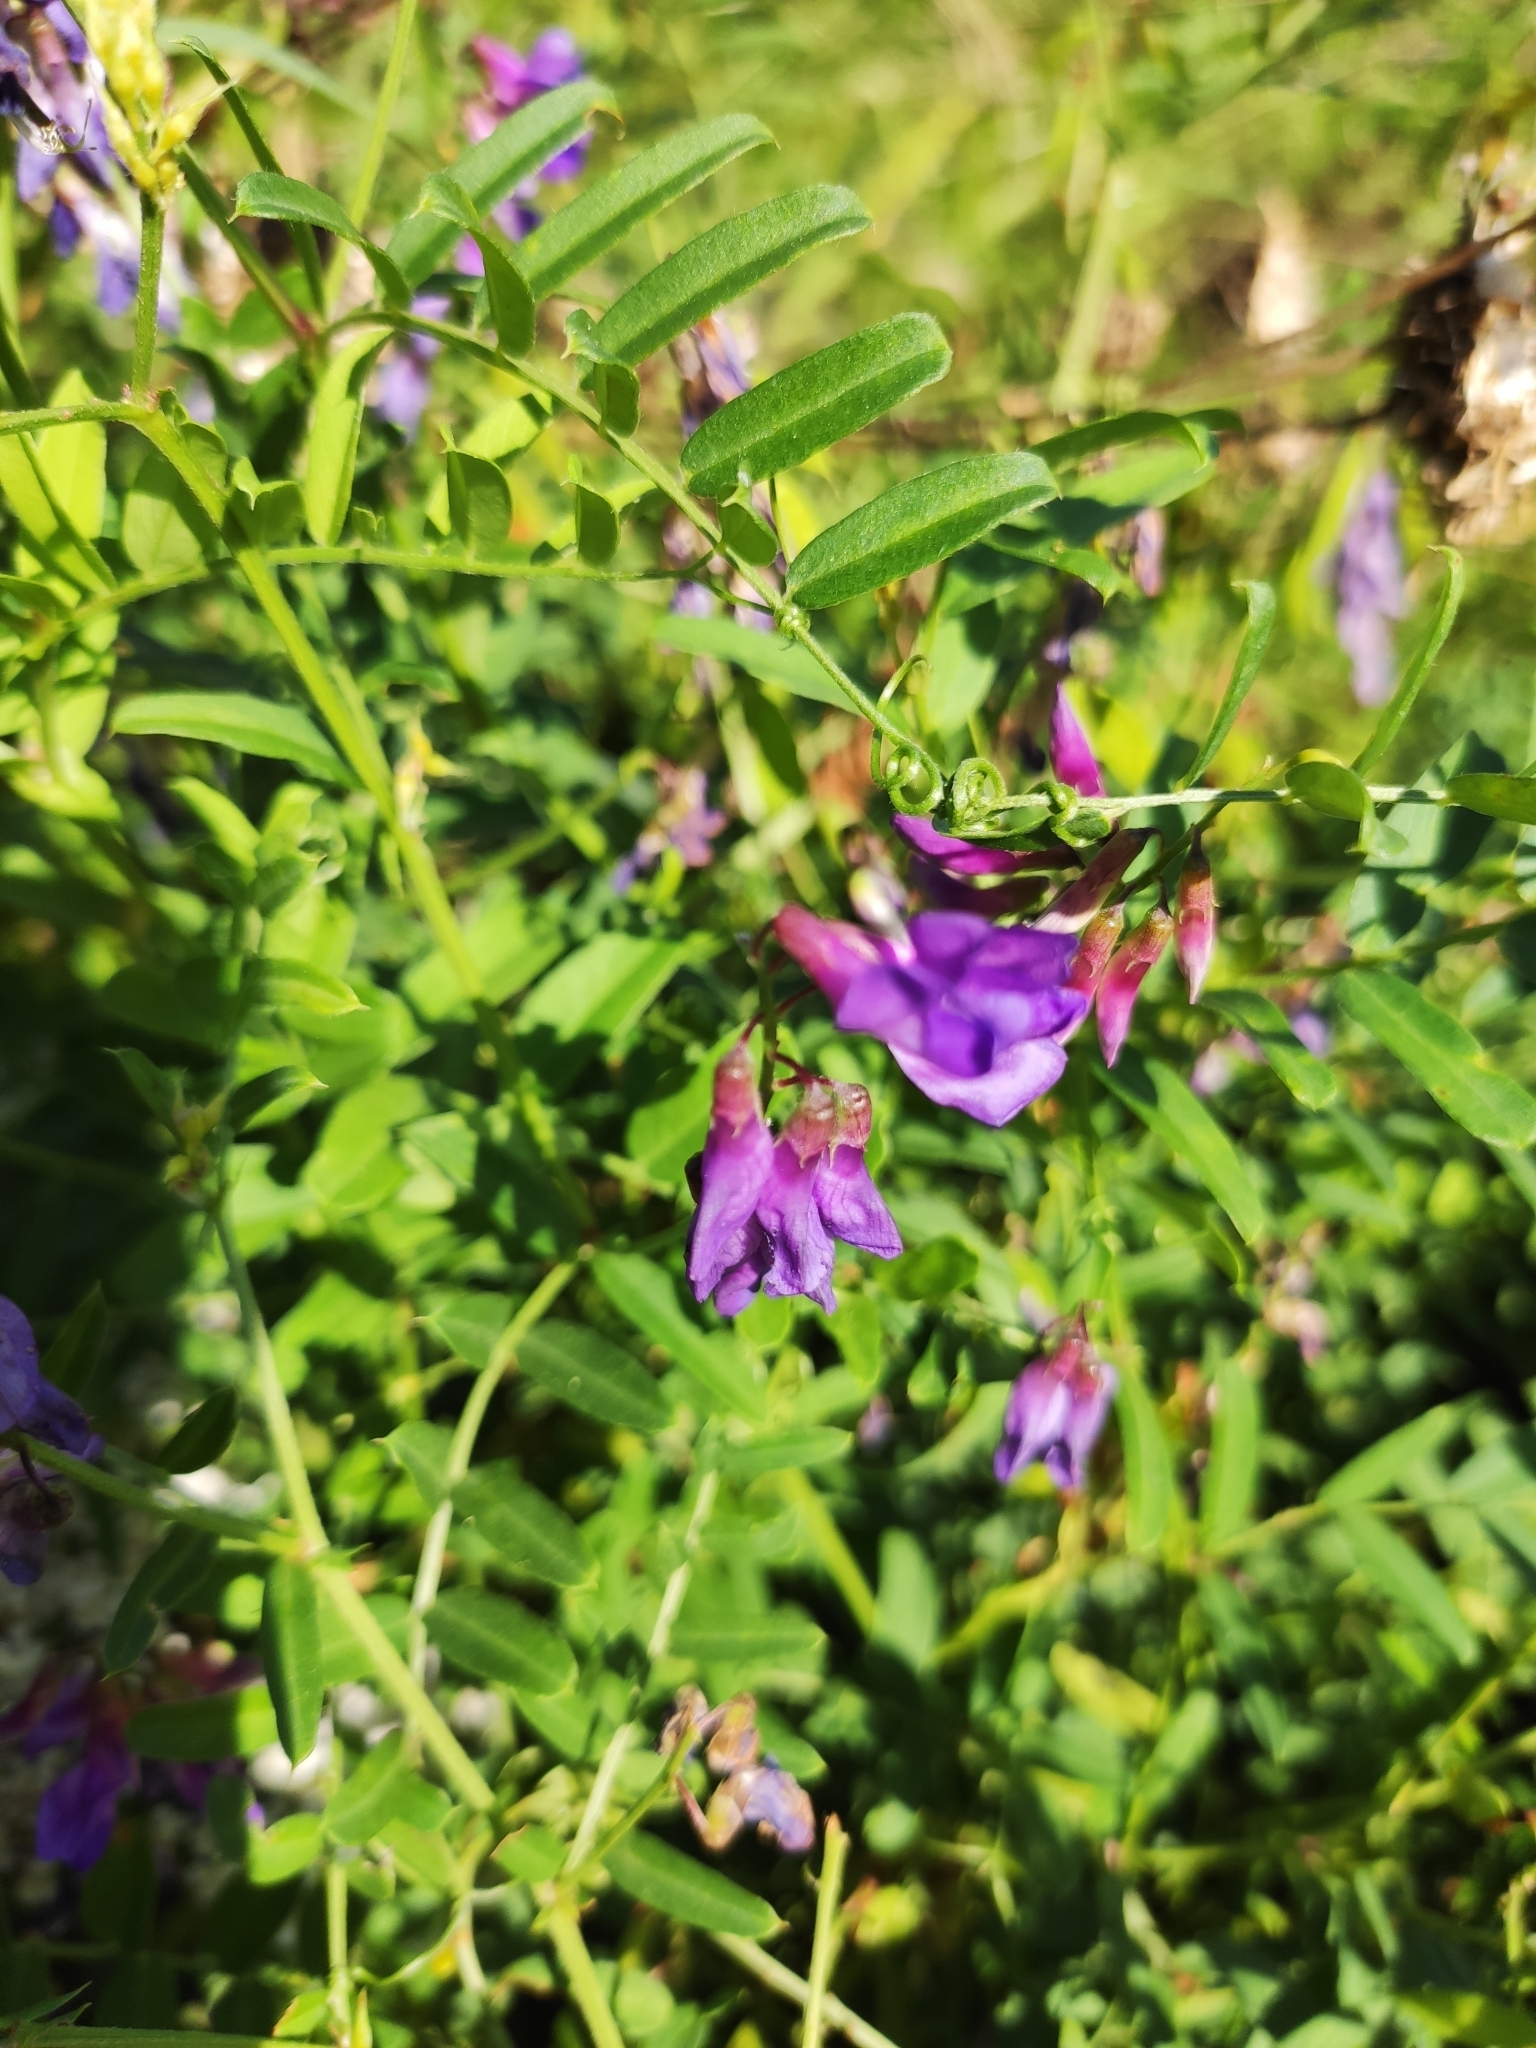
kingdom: Plantae
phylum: Tracheophyta
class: Magnoliopsida
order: Fabales
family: Fabaceae
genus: Vicia
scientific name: Vicia amoena
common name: Cheder ebs
